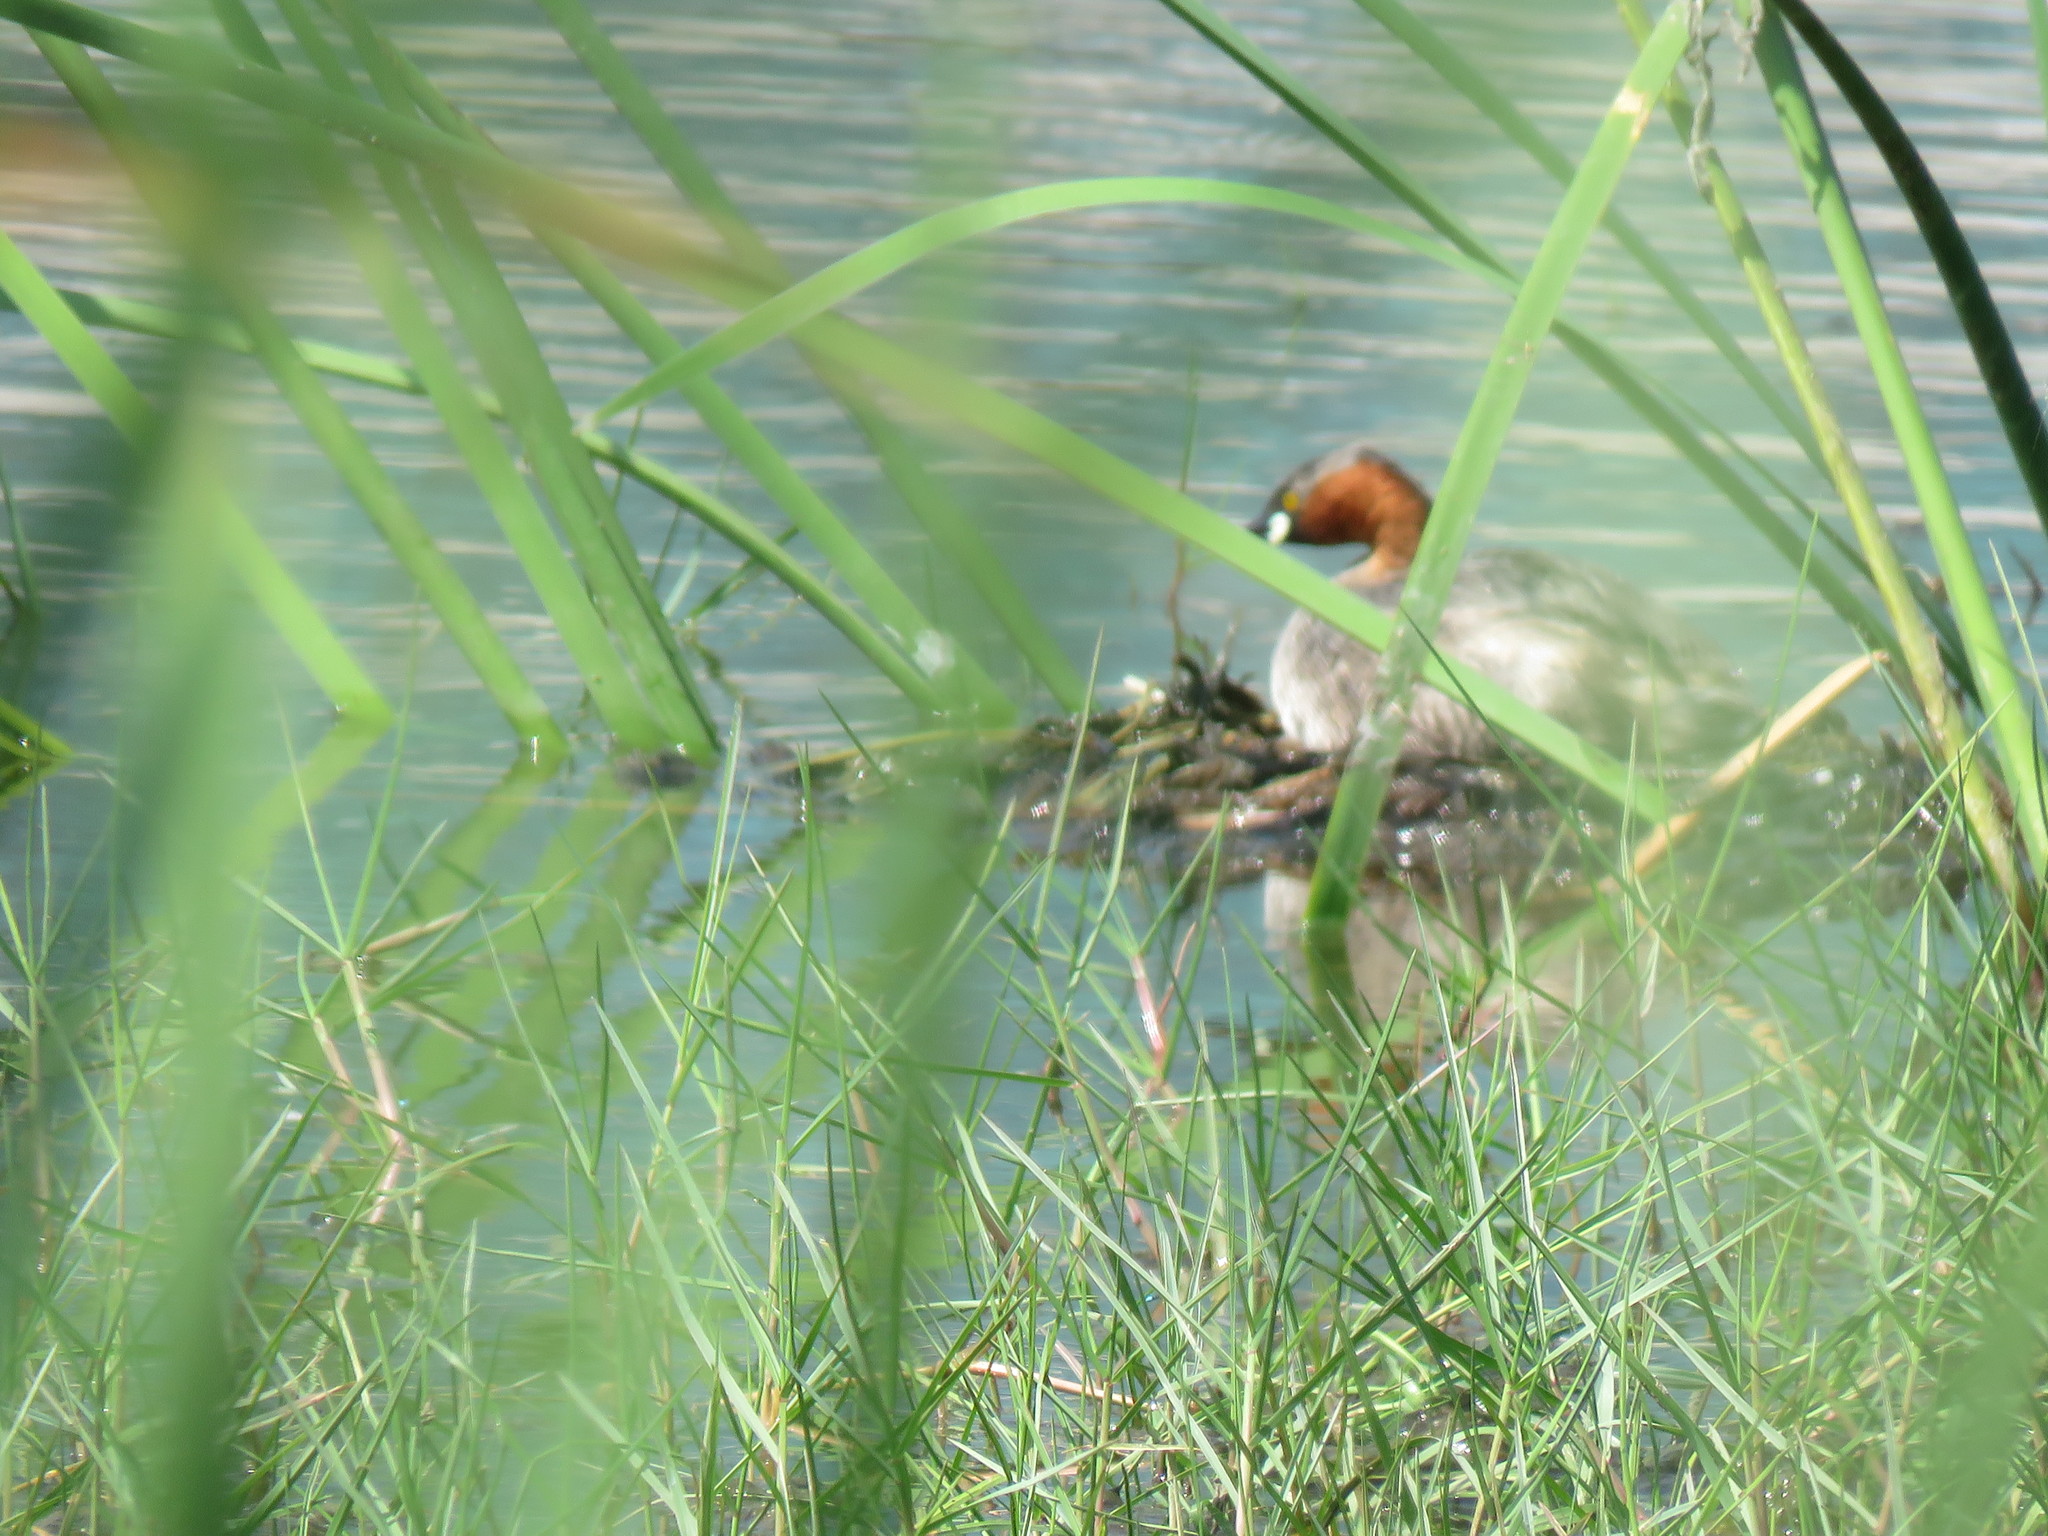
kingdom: Animalia
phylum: Chordata
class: Aves
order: Podicipediformes
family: Podicipedidae
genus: Tachybaptus
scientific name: Tachybaptus ruficollis
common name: Little grebe
